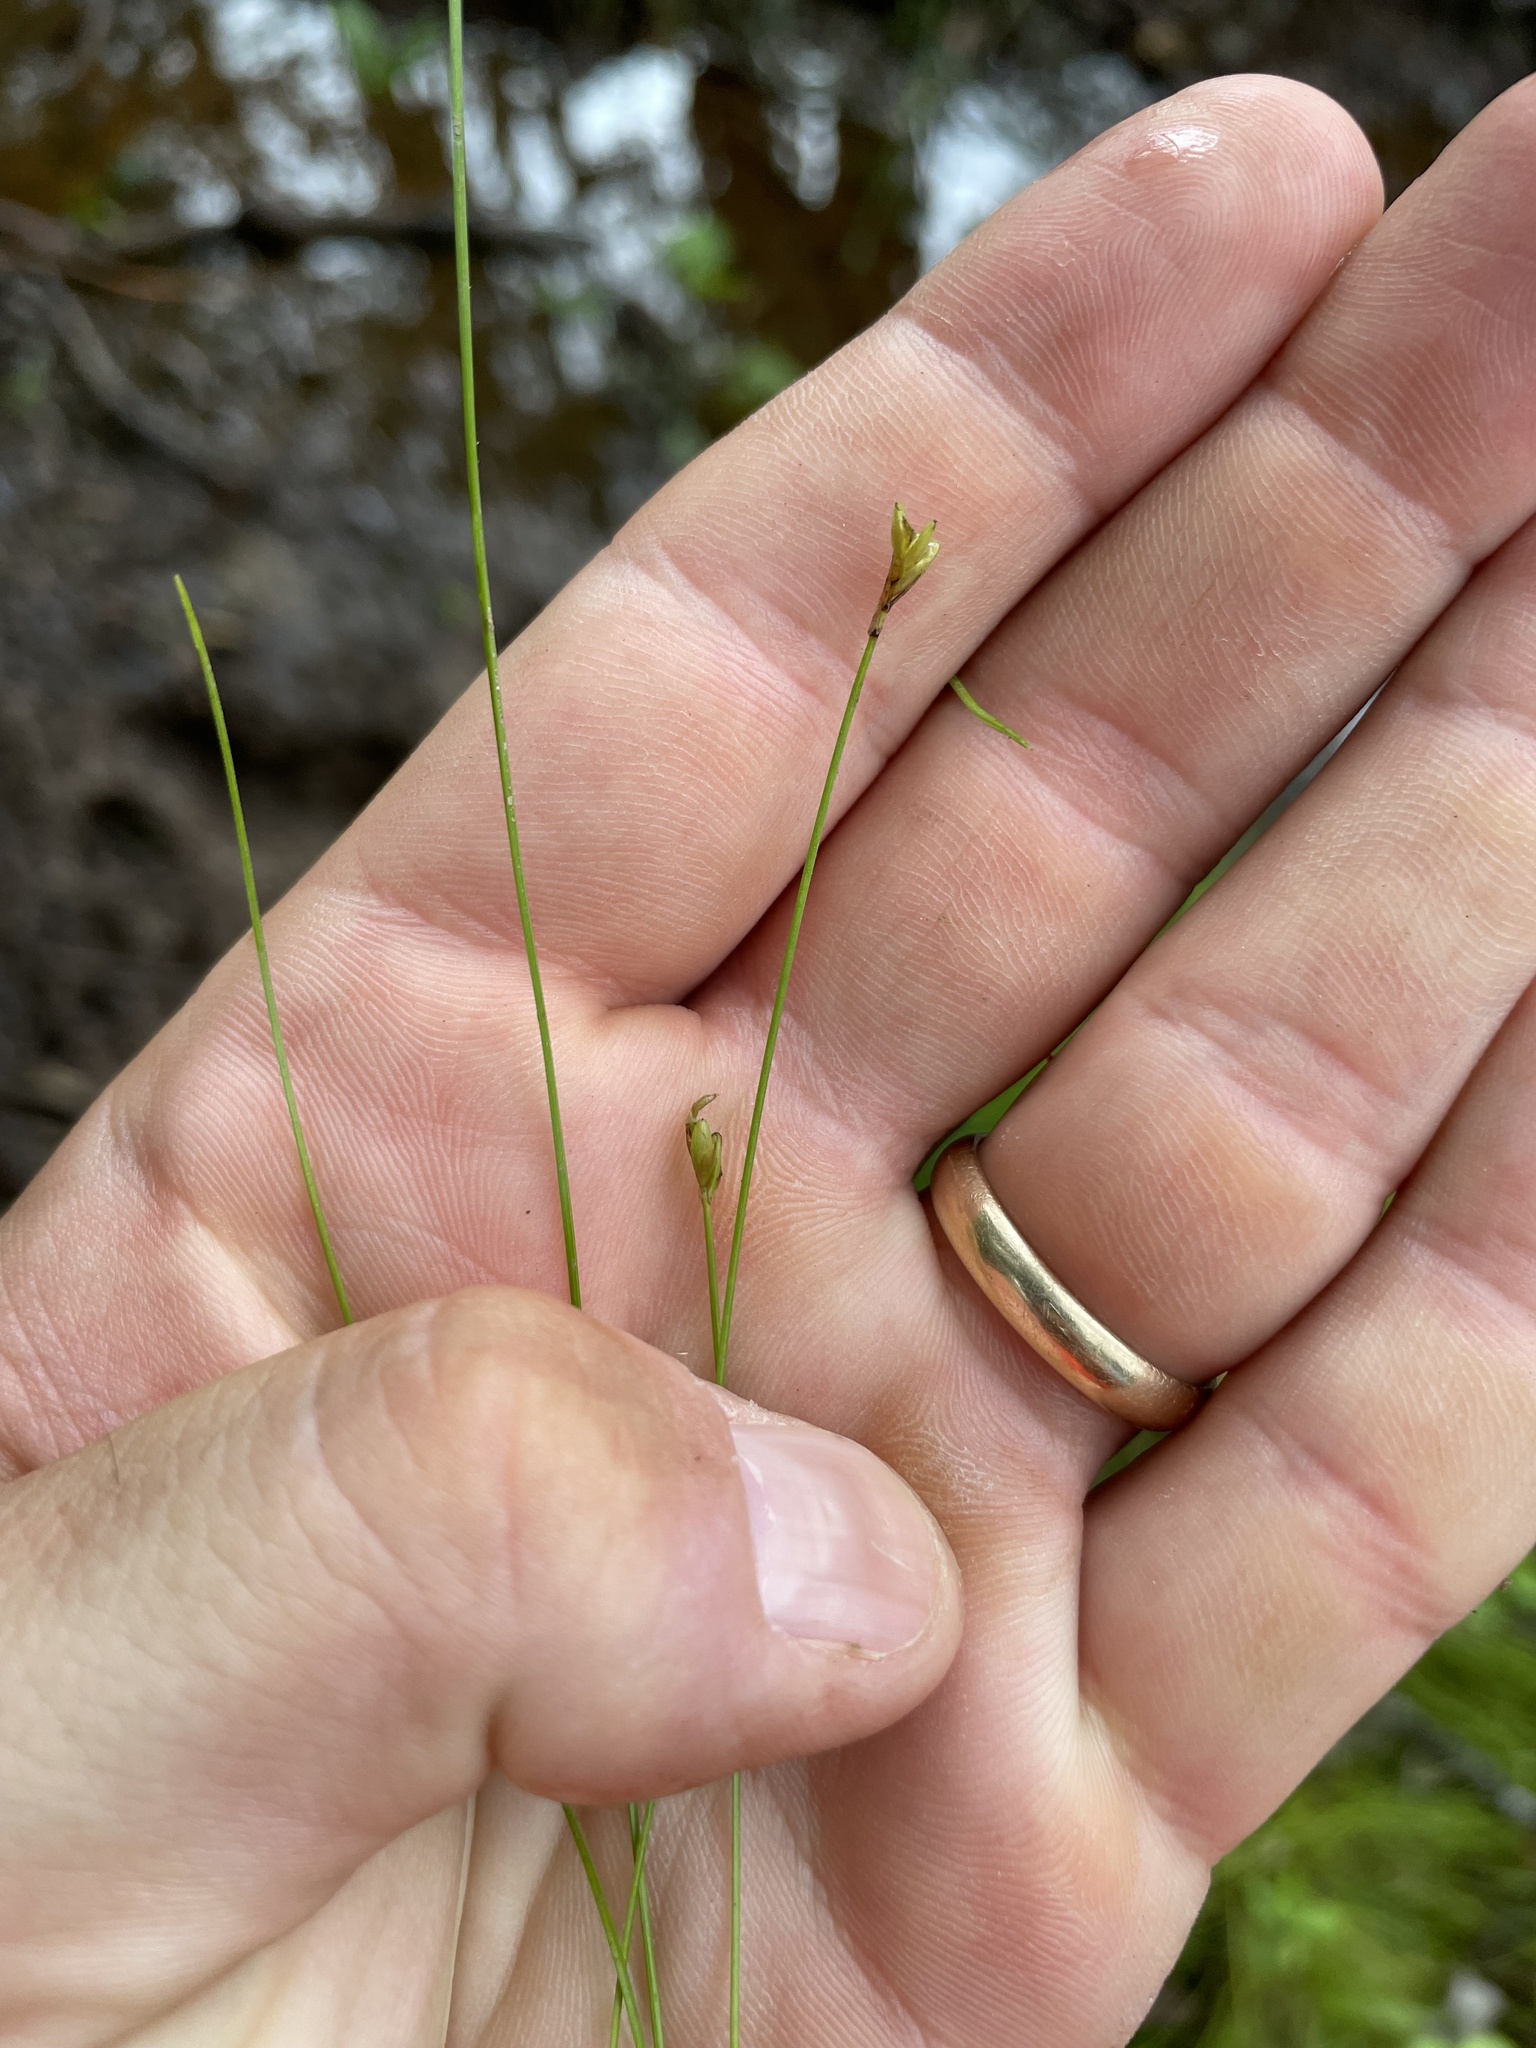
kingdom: Plantae
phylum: Tracheophyta
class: Liliopsida
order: Poales
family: Cyperaceae
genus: Carex
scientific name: Carex leptalea
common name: Bristly-stalked sedge
